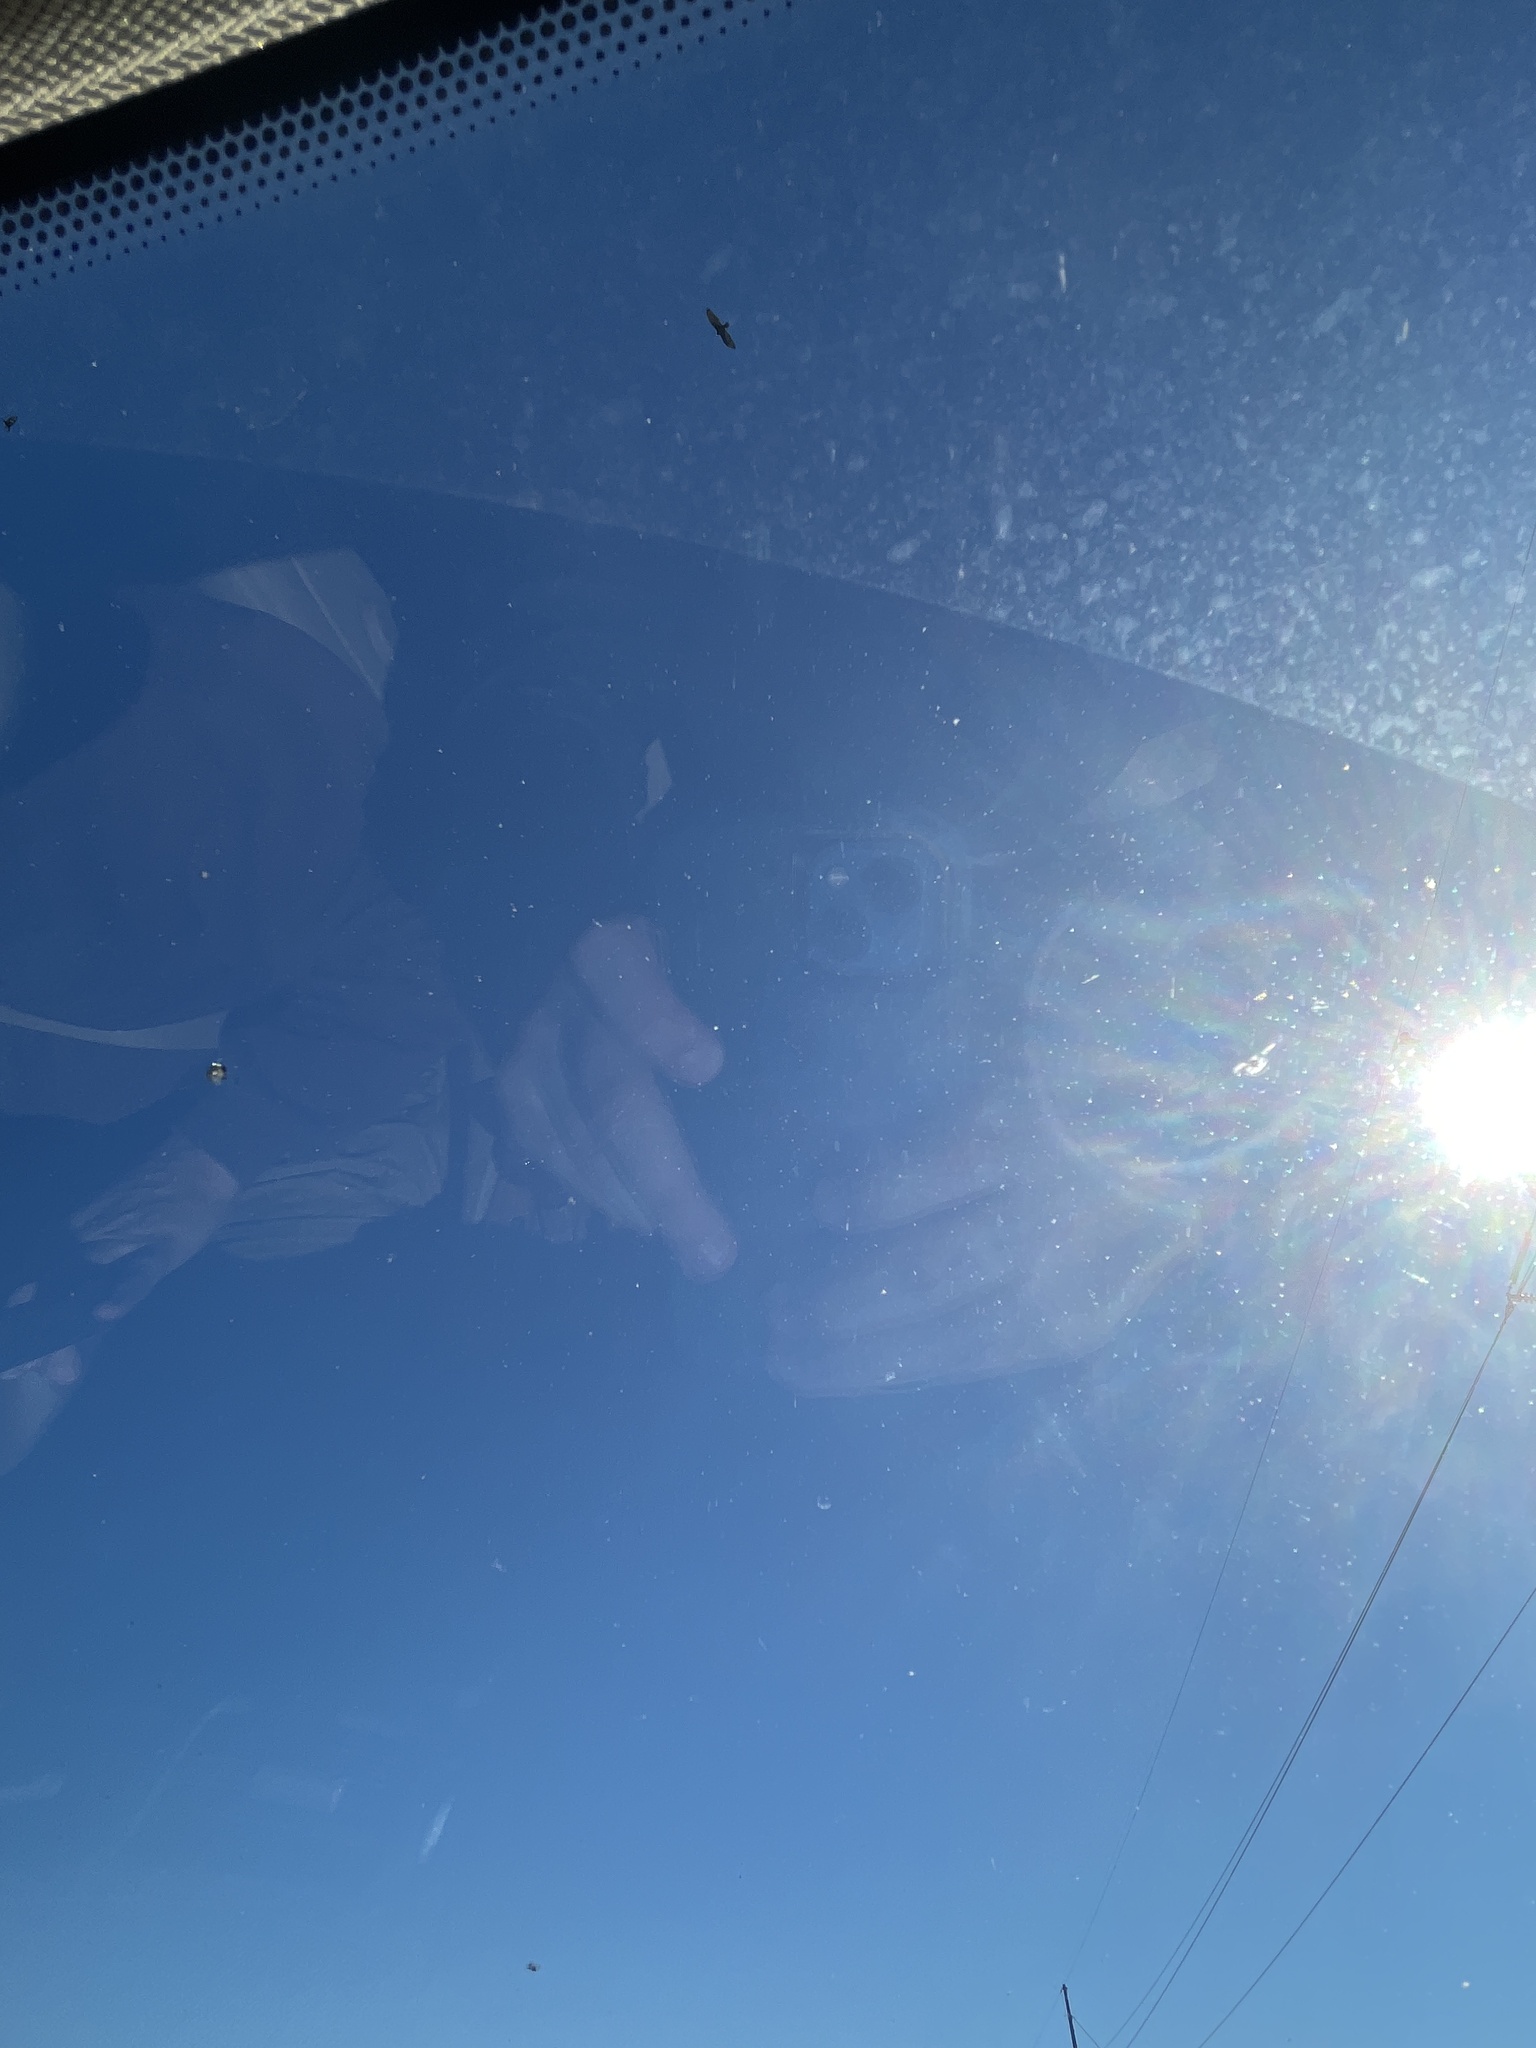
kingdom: Animalia
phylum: Chordata
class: Aves
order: Accipitriformes
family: Cathartidae
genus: Cathartes
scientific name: Cathartes aura
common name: Turkey vulture
